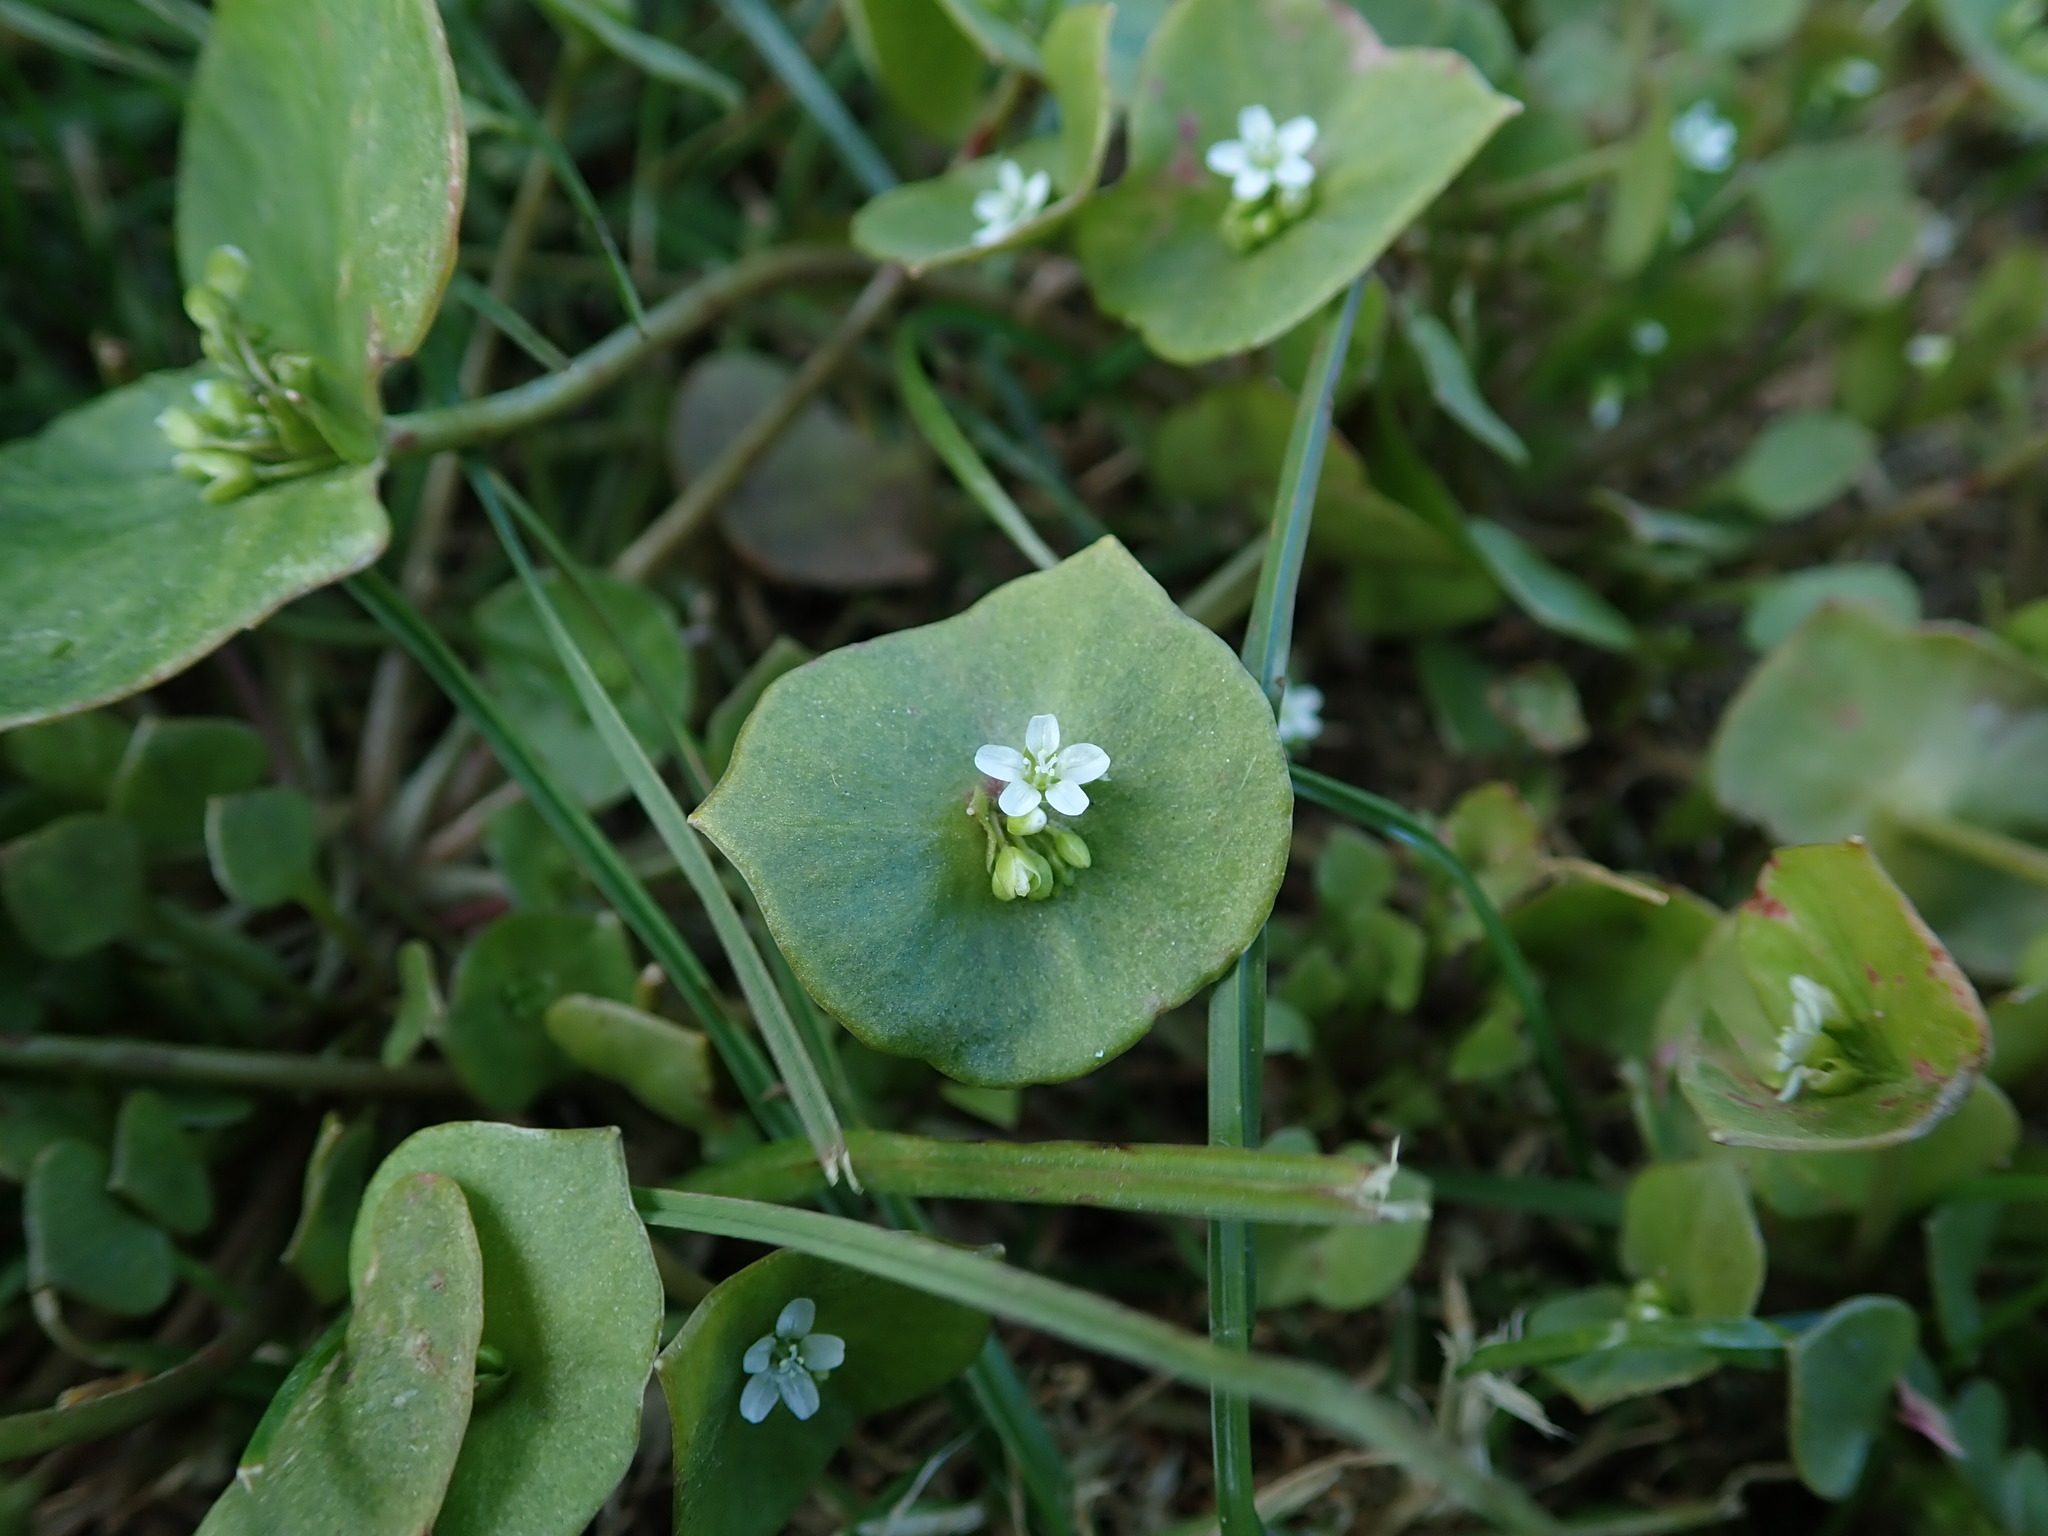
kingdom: Plantae
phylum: Tracheophyta
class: Magnoliopsida
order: Caryophyllales
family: Montiaceae
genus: Claytonia
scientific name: Claytonia perfoliata
